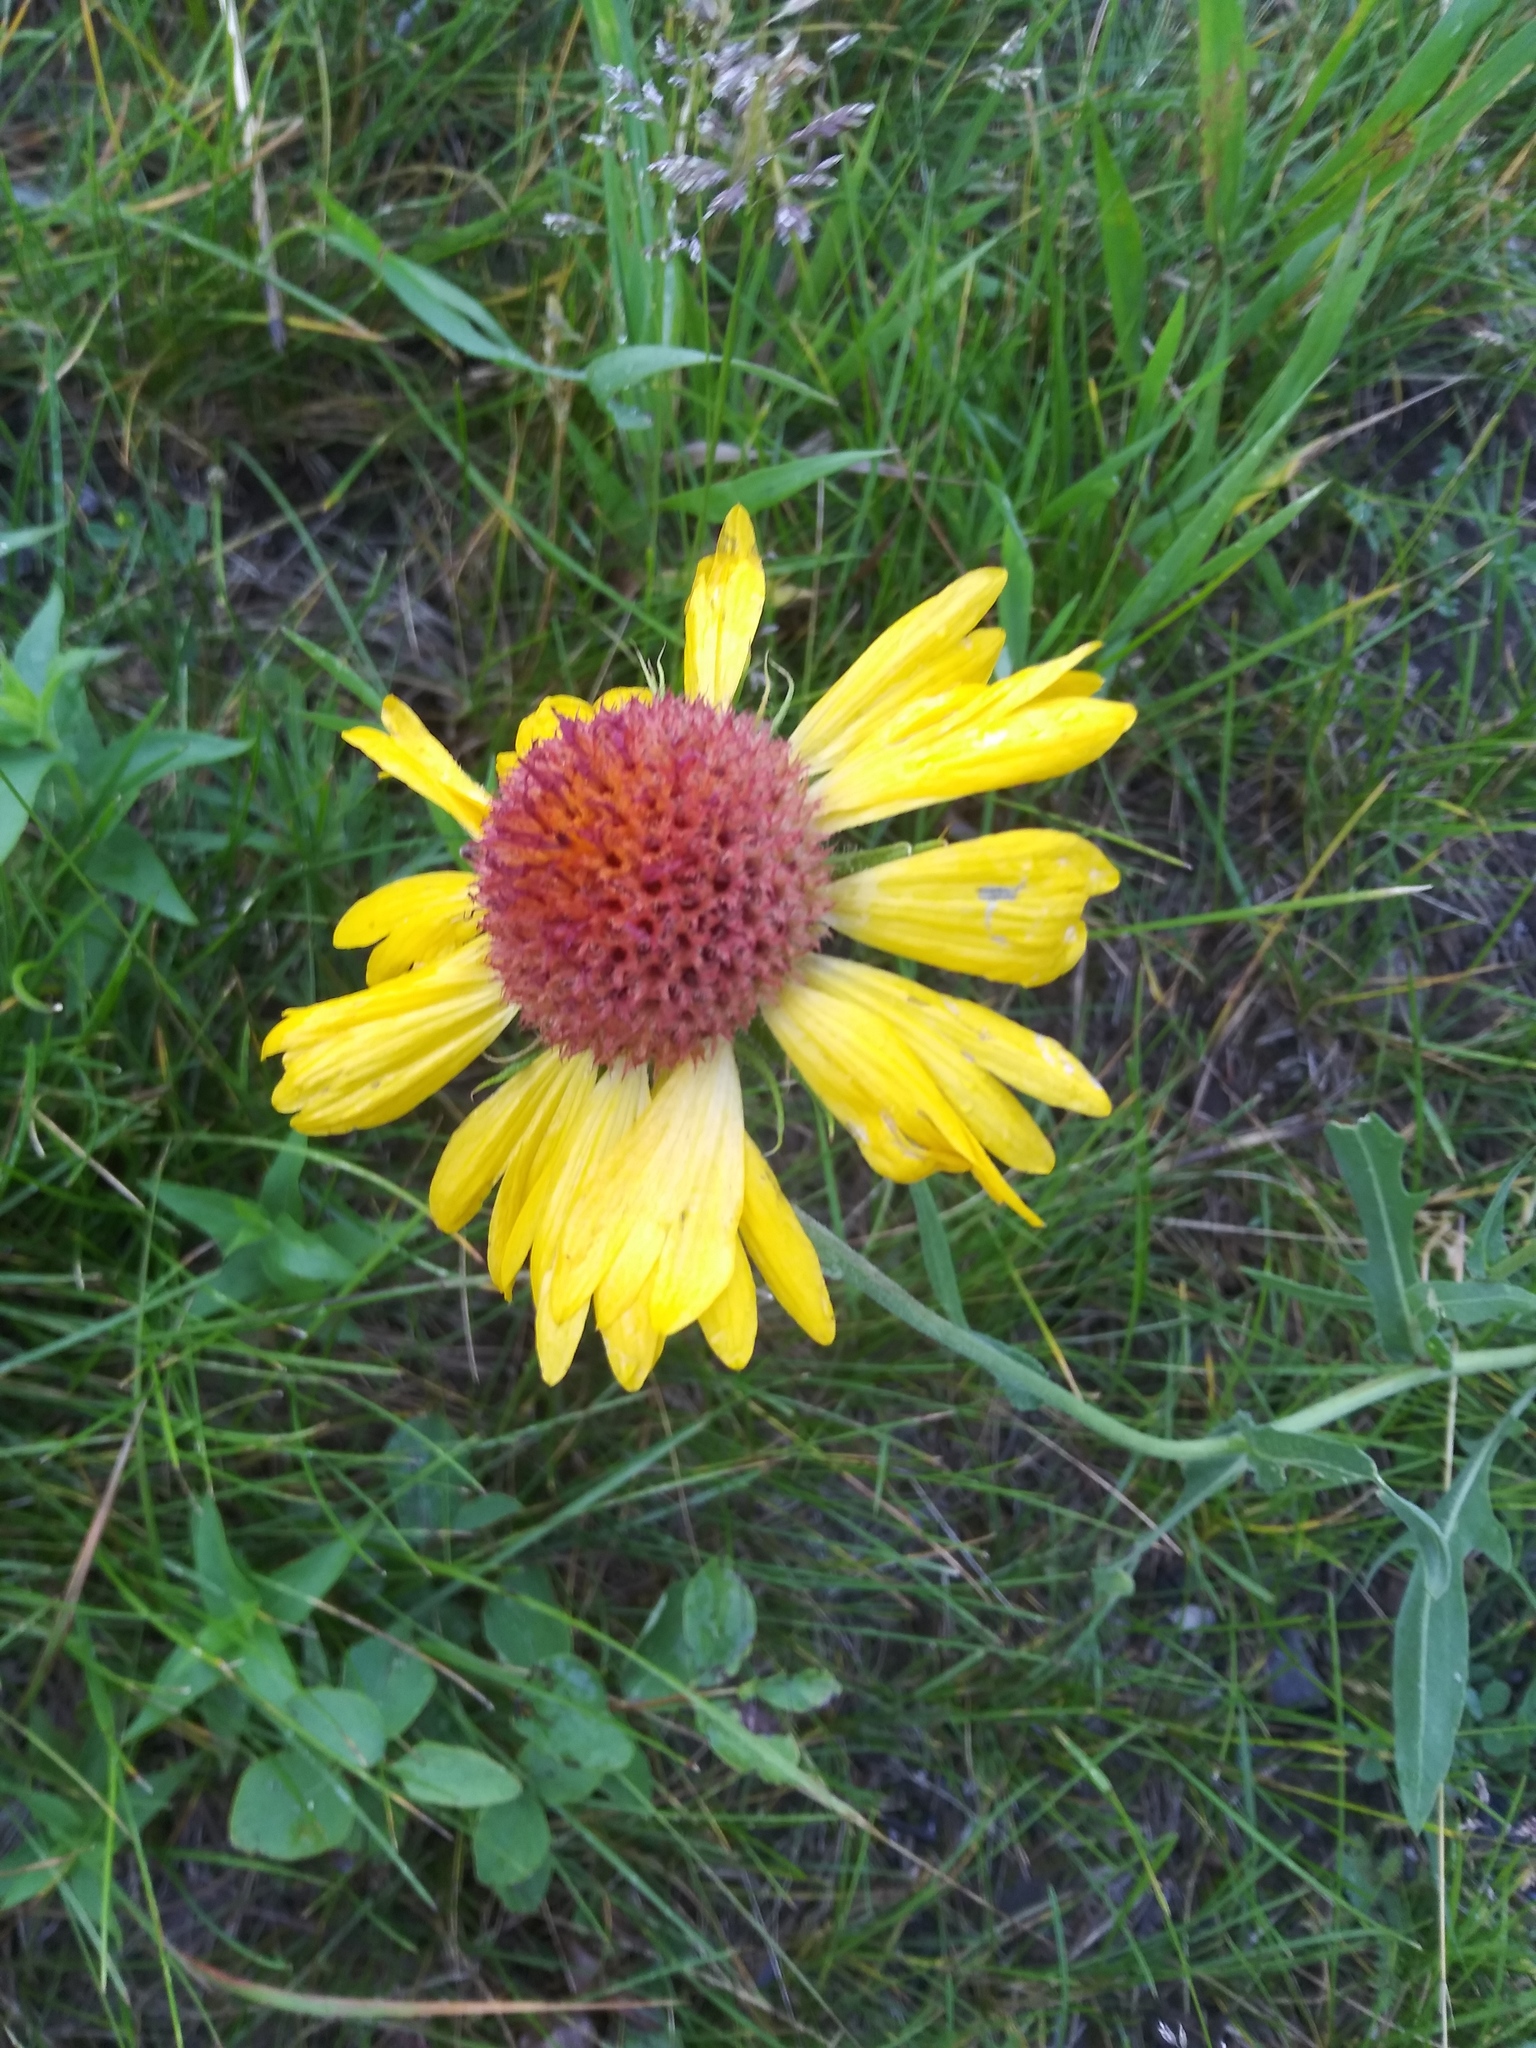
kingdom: Plantae
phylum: Tracheophyta
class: Magnoliopsida
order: Asterales
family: Asteraceae
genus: Gaillardia
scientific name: Gaillardia aristata
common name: Blanket-flower
